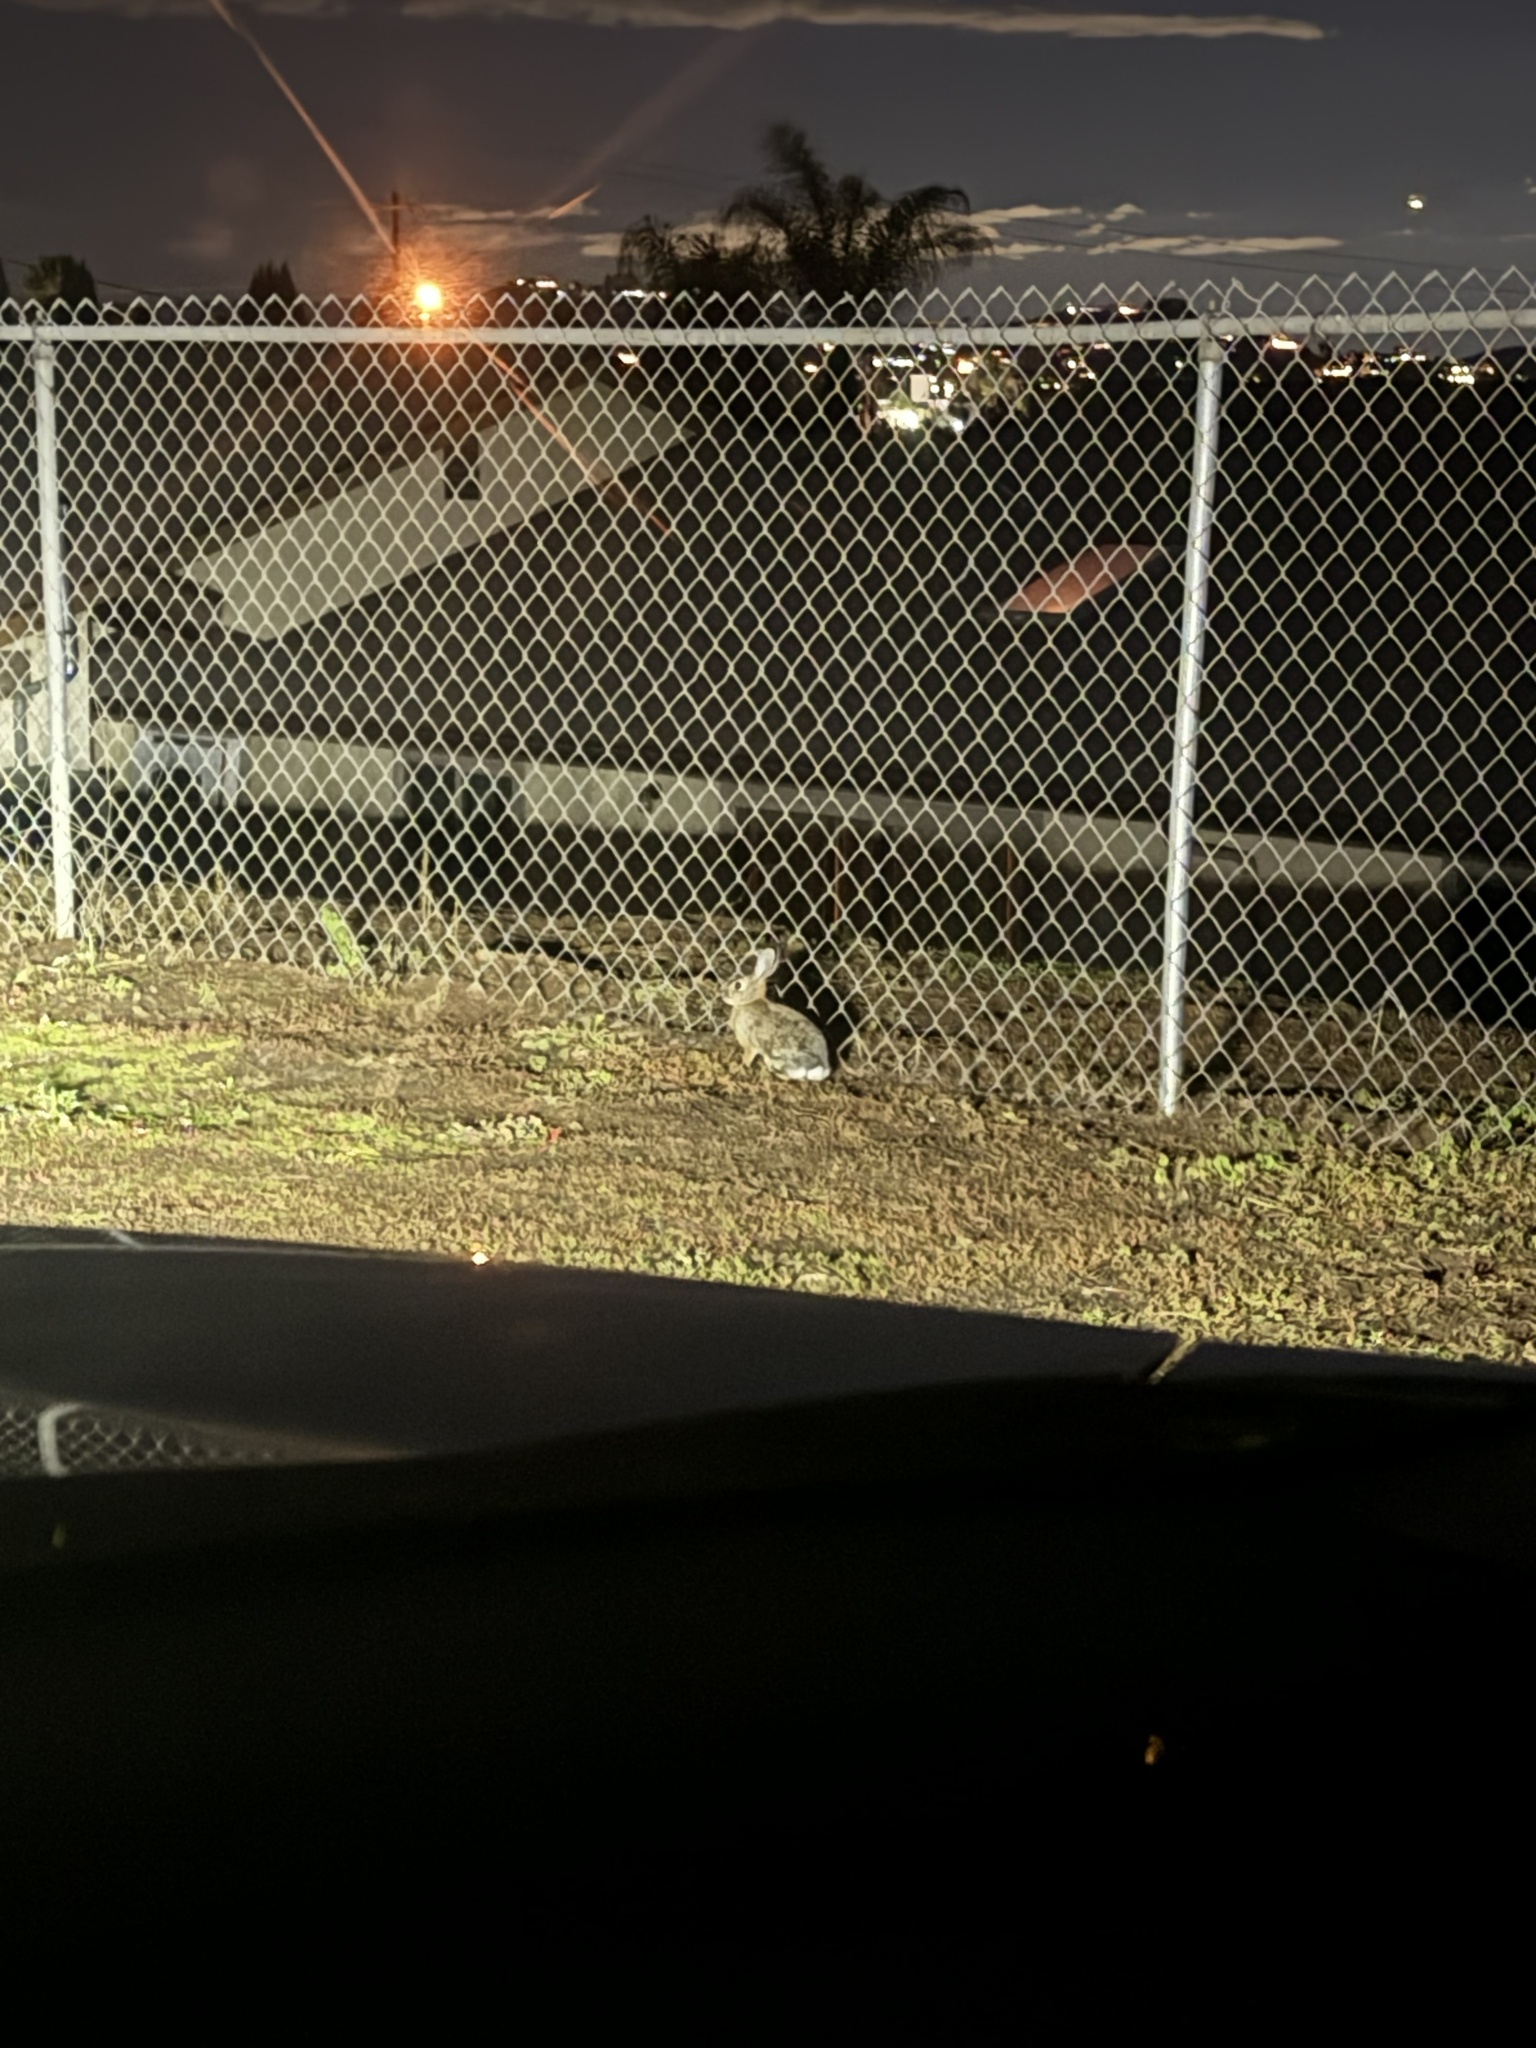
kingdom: Animalia
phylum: Chordata
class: Mammalia
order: Lagomorpha
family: Leporidae
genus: Sylvilagus
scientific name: Sylvilagus audubonii
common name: Desert cottontail
